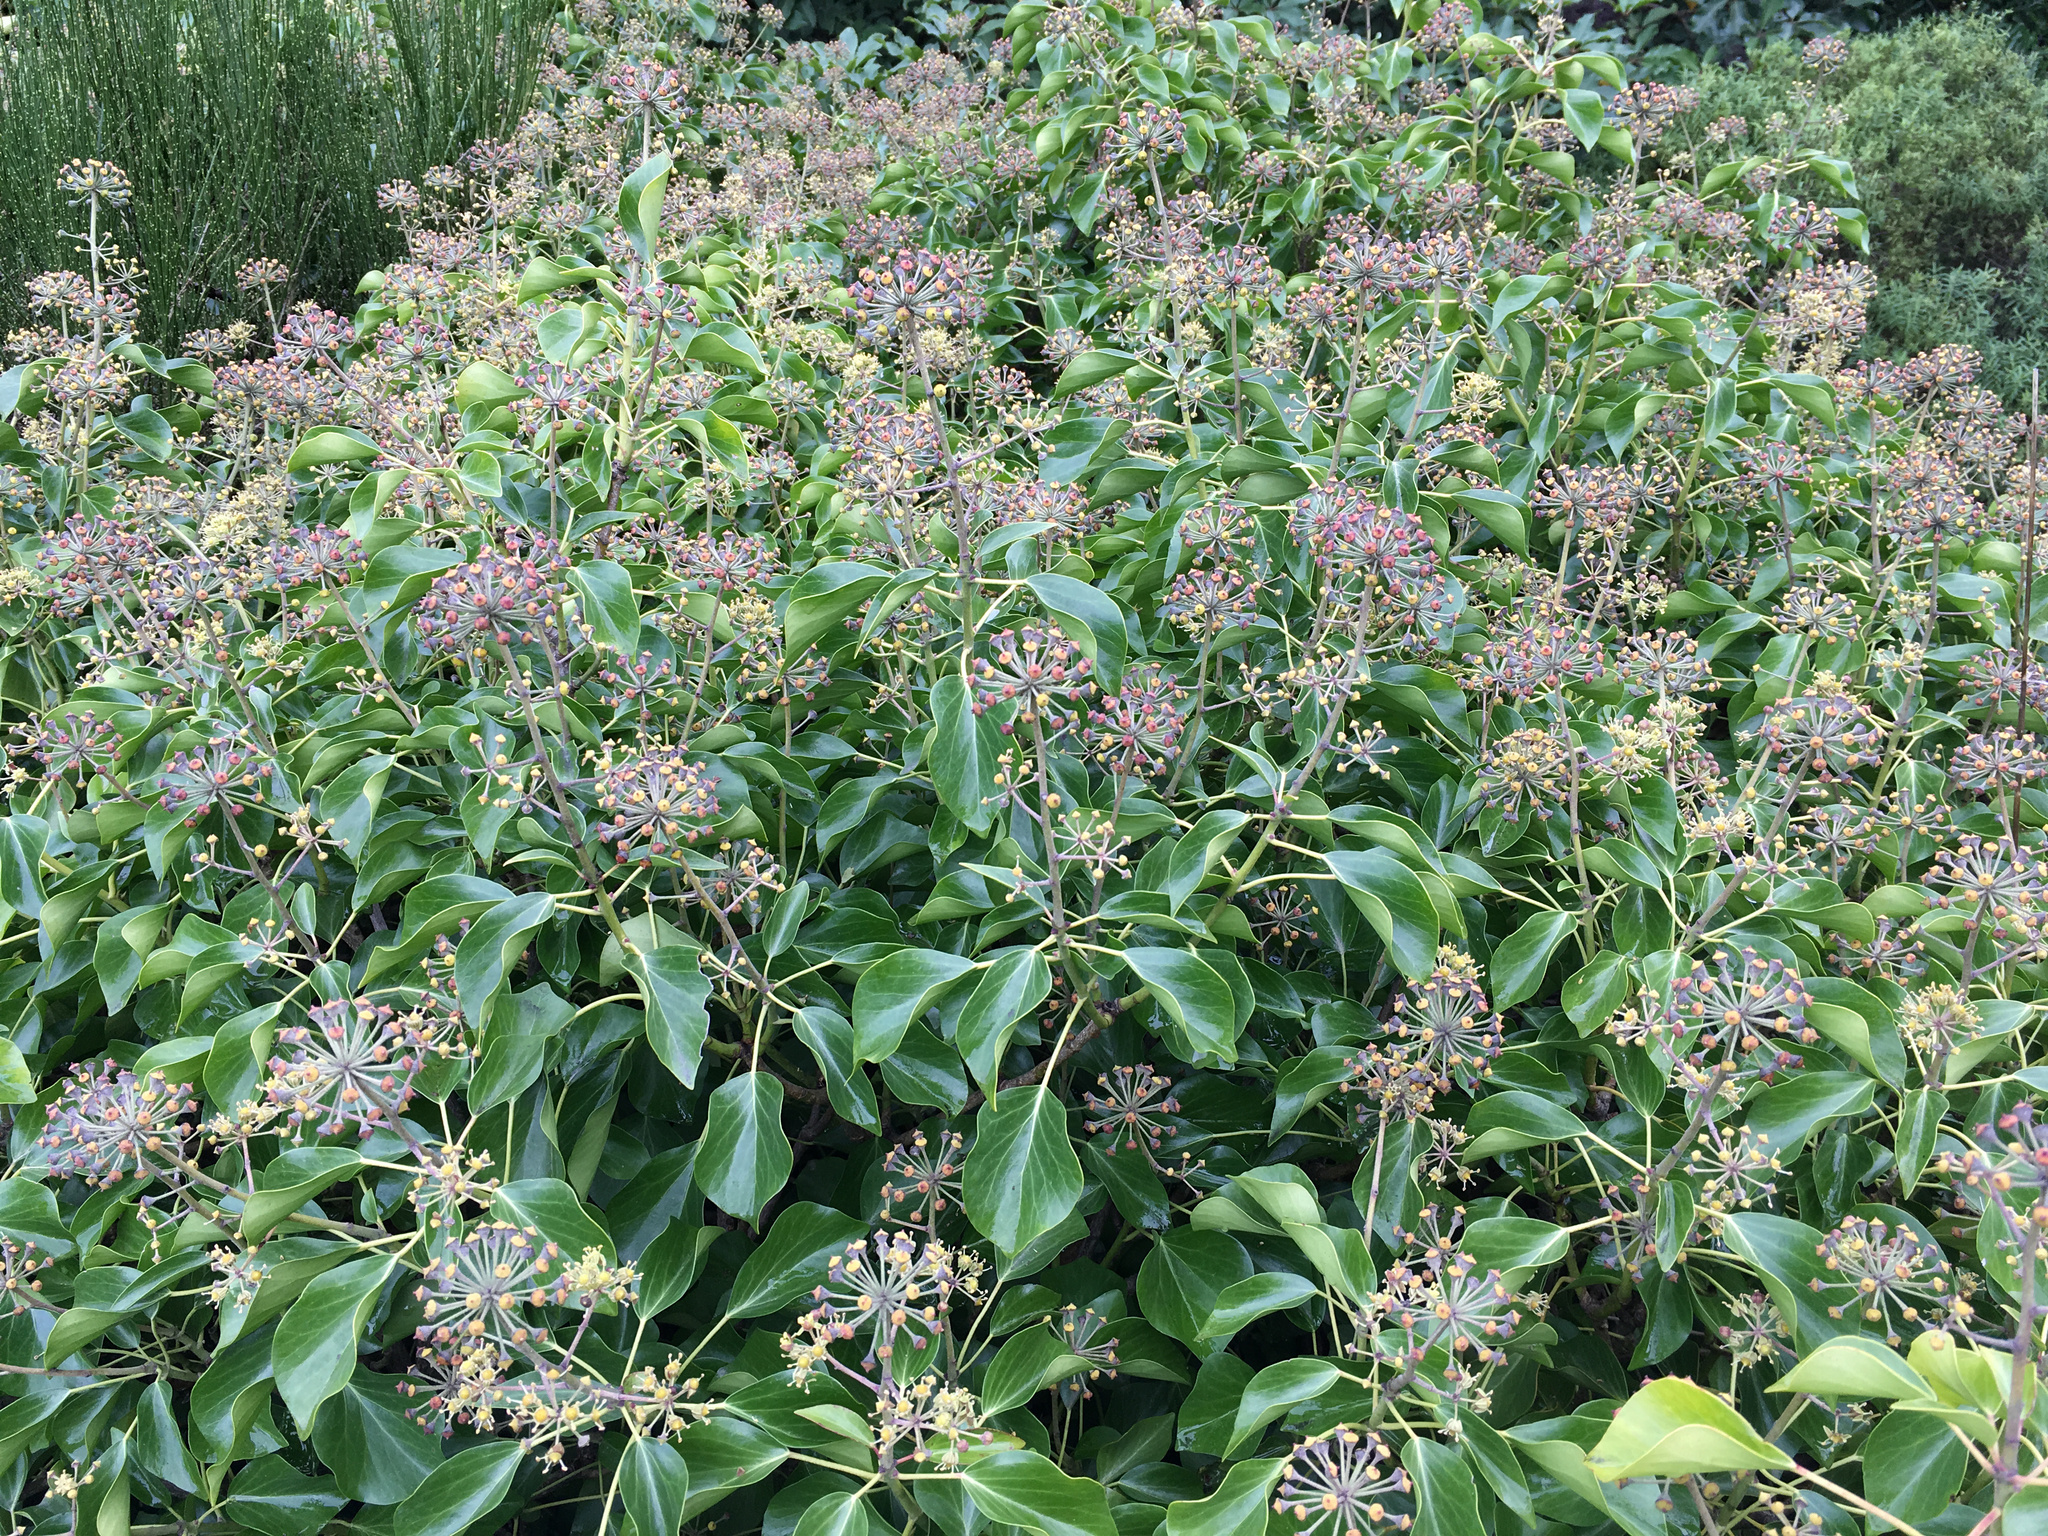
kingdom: Plantae
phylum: Tracheophyta
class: Magnoliopsida
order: Apiales
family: Araliaceae
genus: Hedera
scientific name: Hedera helix
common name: Ivy
